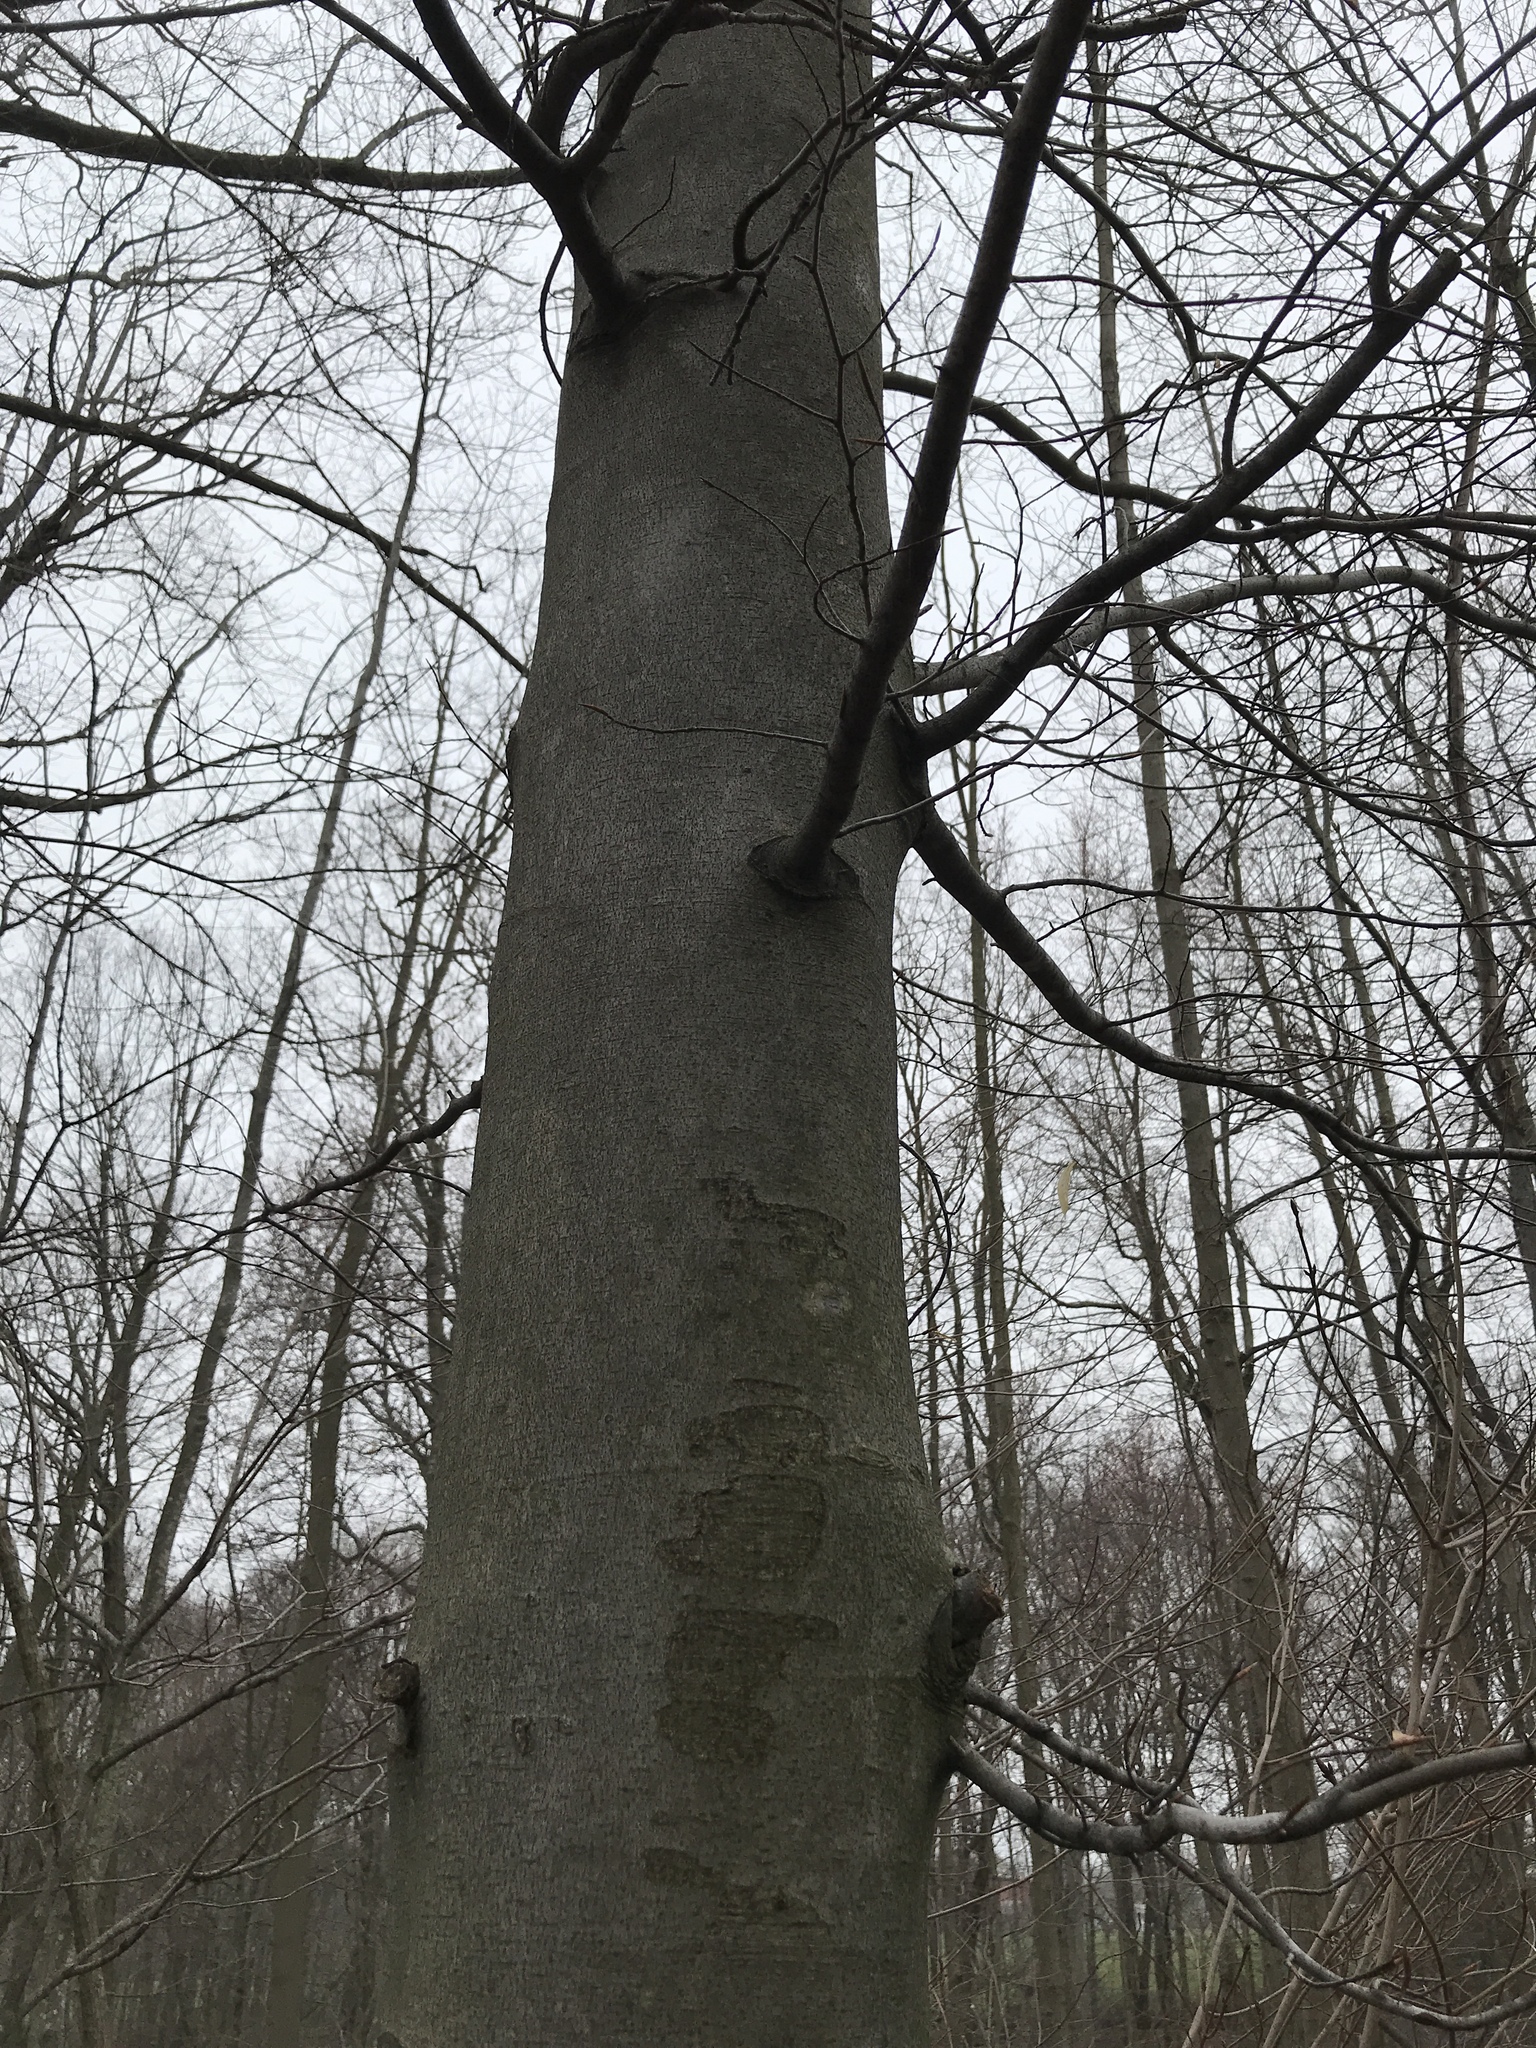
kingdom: Plantae
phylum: Tracheophyta
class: Magnoliopsida
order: Fagales
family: Fagaceae
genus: Fagus
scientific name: Fagus grandifolia
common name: American beech
